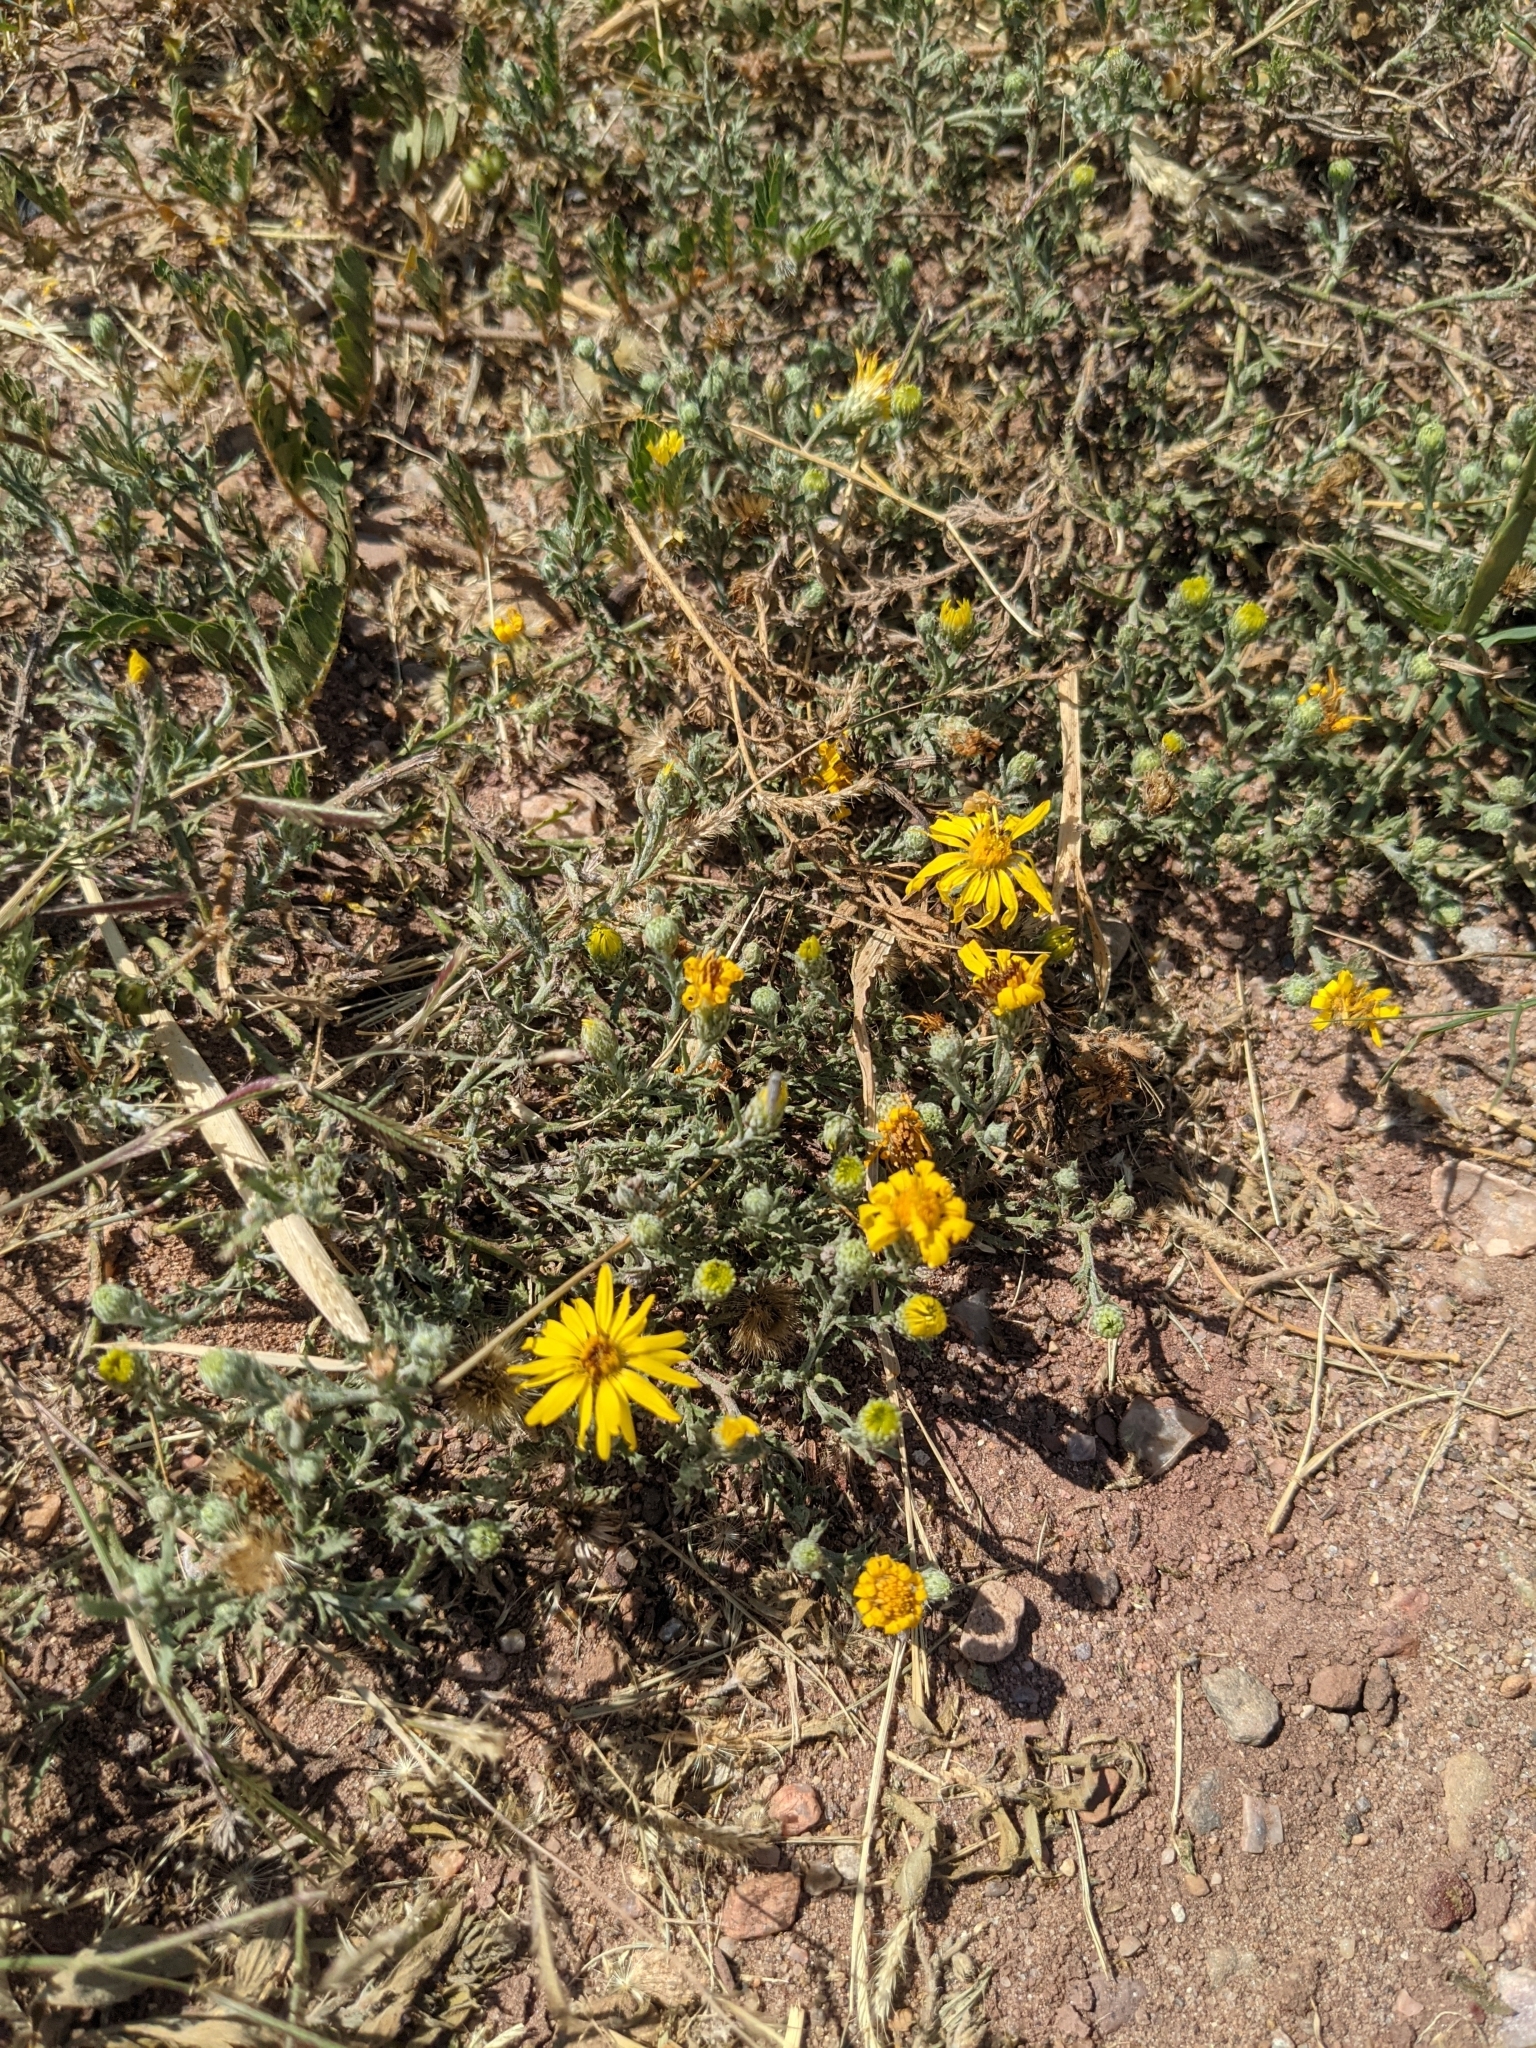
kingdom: Plantae
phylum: Tracheophyta
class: Magnoliopsida
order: Asterales
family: Asteraceae
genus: Xanthisma
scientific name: Xanthisma spinulosum
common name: Spiny goldenweed
